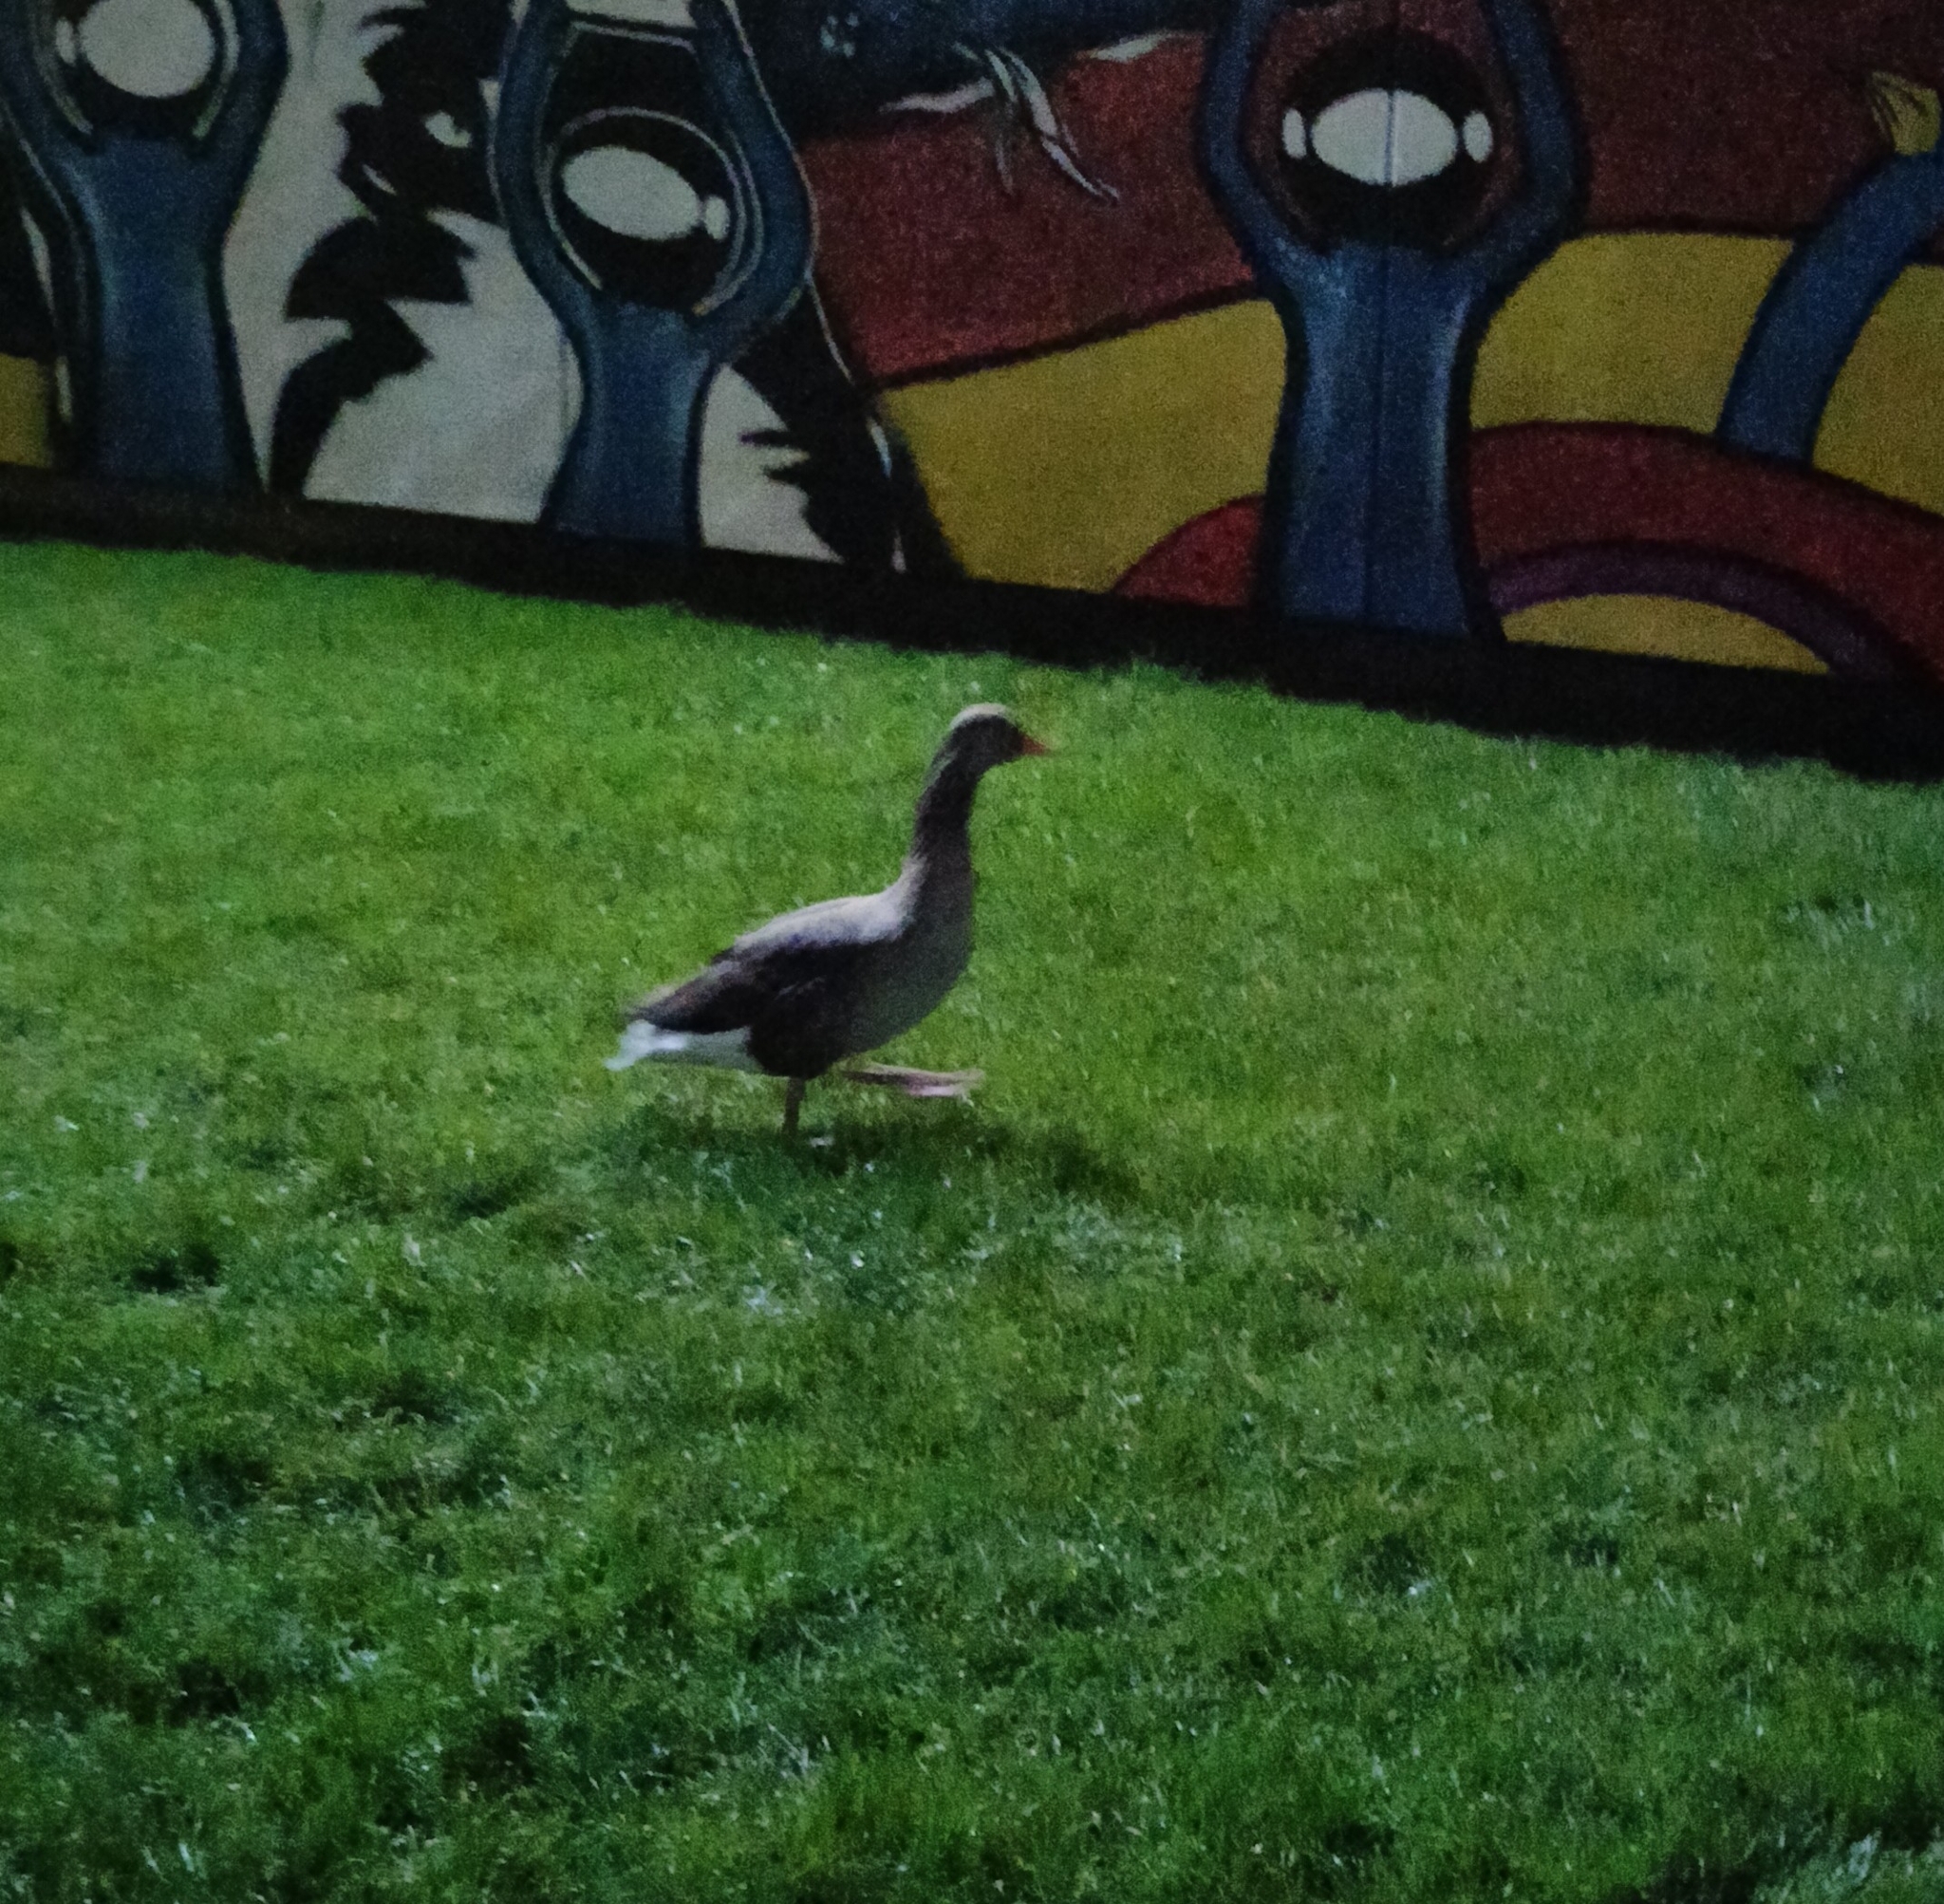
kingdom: Animalia
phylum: Chordata
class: Aves
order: Anseriformes
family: Anatidae
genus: Anser
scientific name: Anser anser
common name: Greylag goose
